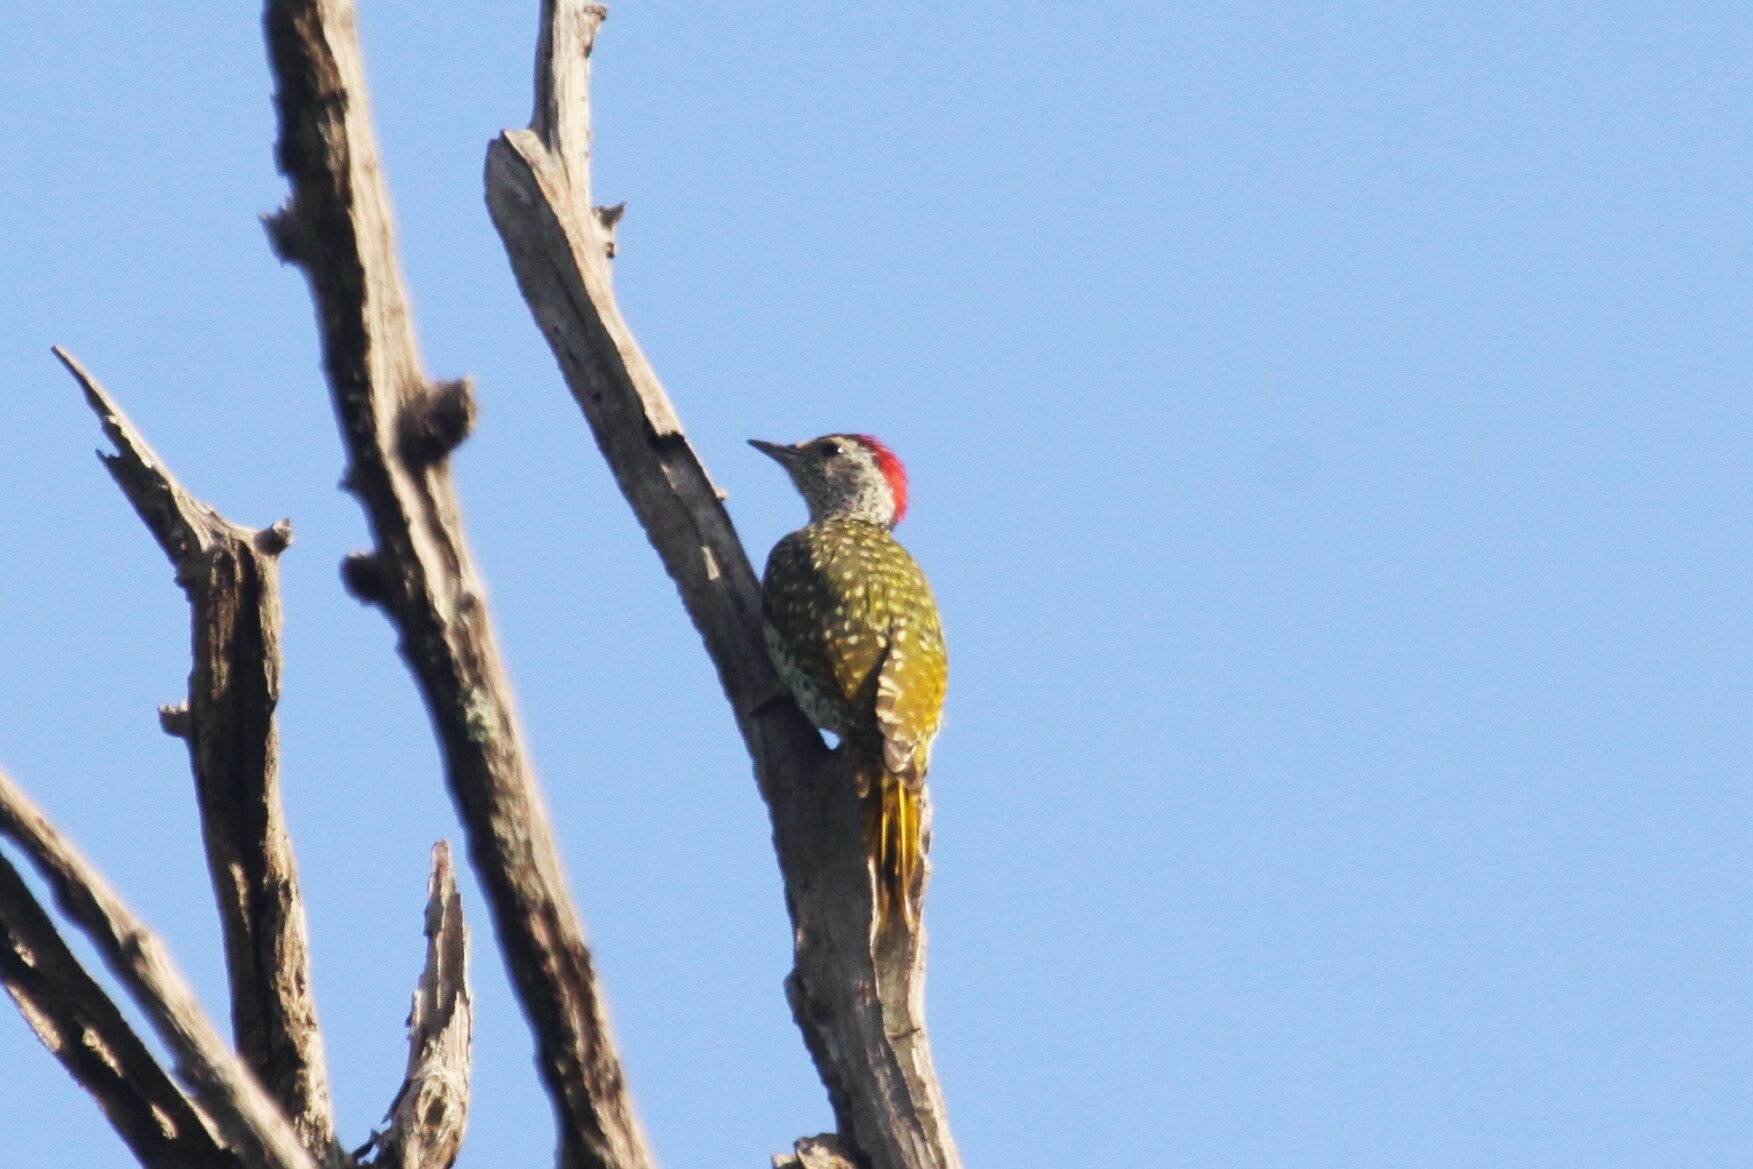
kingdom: Animalia
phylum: Chordata
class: Aves
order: Piciformes
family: Picidae
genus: Campethera
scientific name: Campethera maculosa
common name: Little green woodpecker
